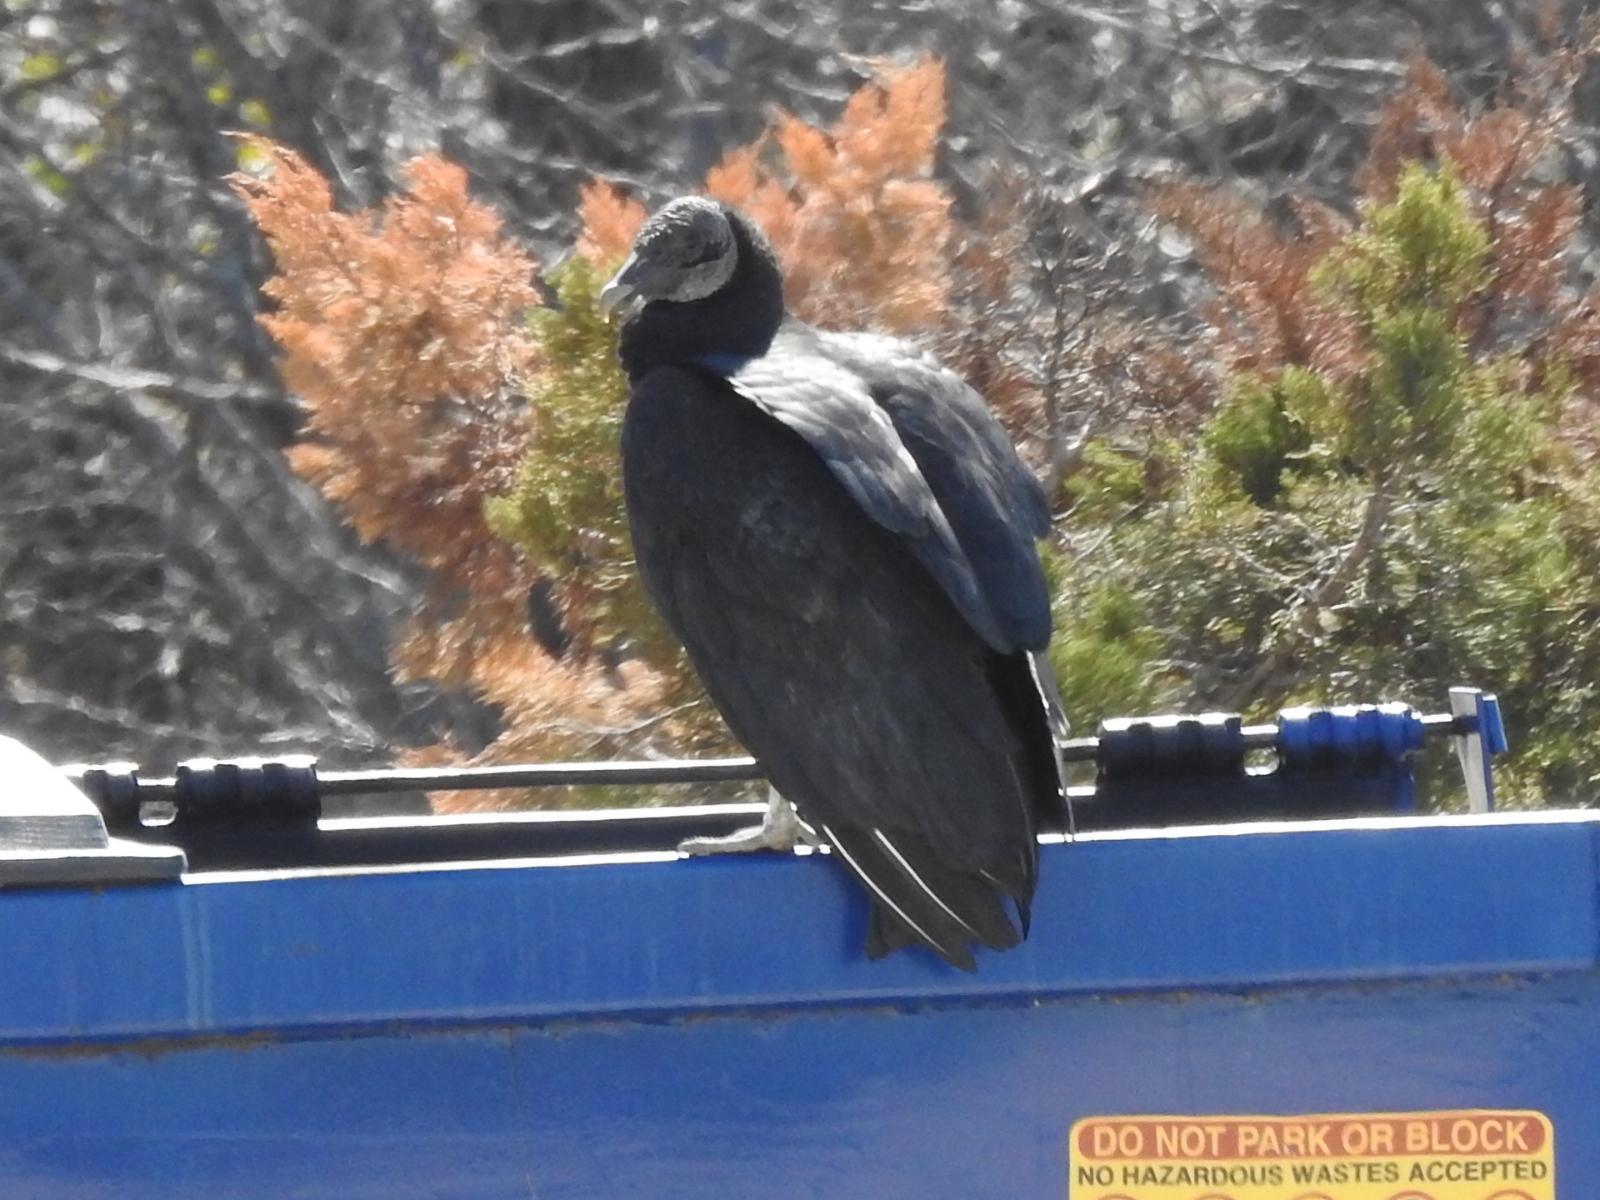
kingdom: Animalia
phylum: Chordata
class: Aves
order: Accipitriformes
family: Cathartidae
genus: Coragyps
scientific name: Coragyps atratus
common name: Black vulture
